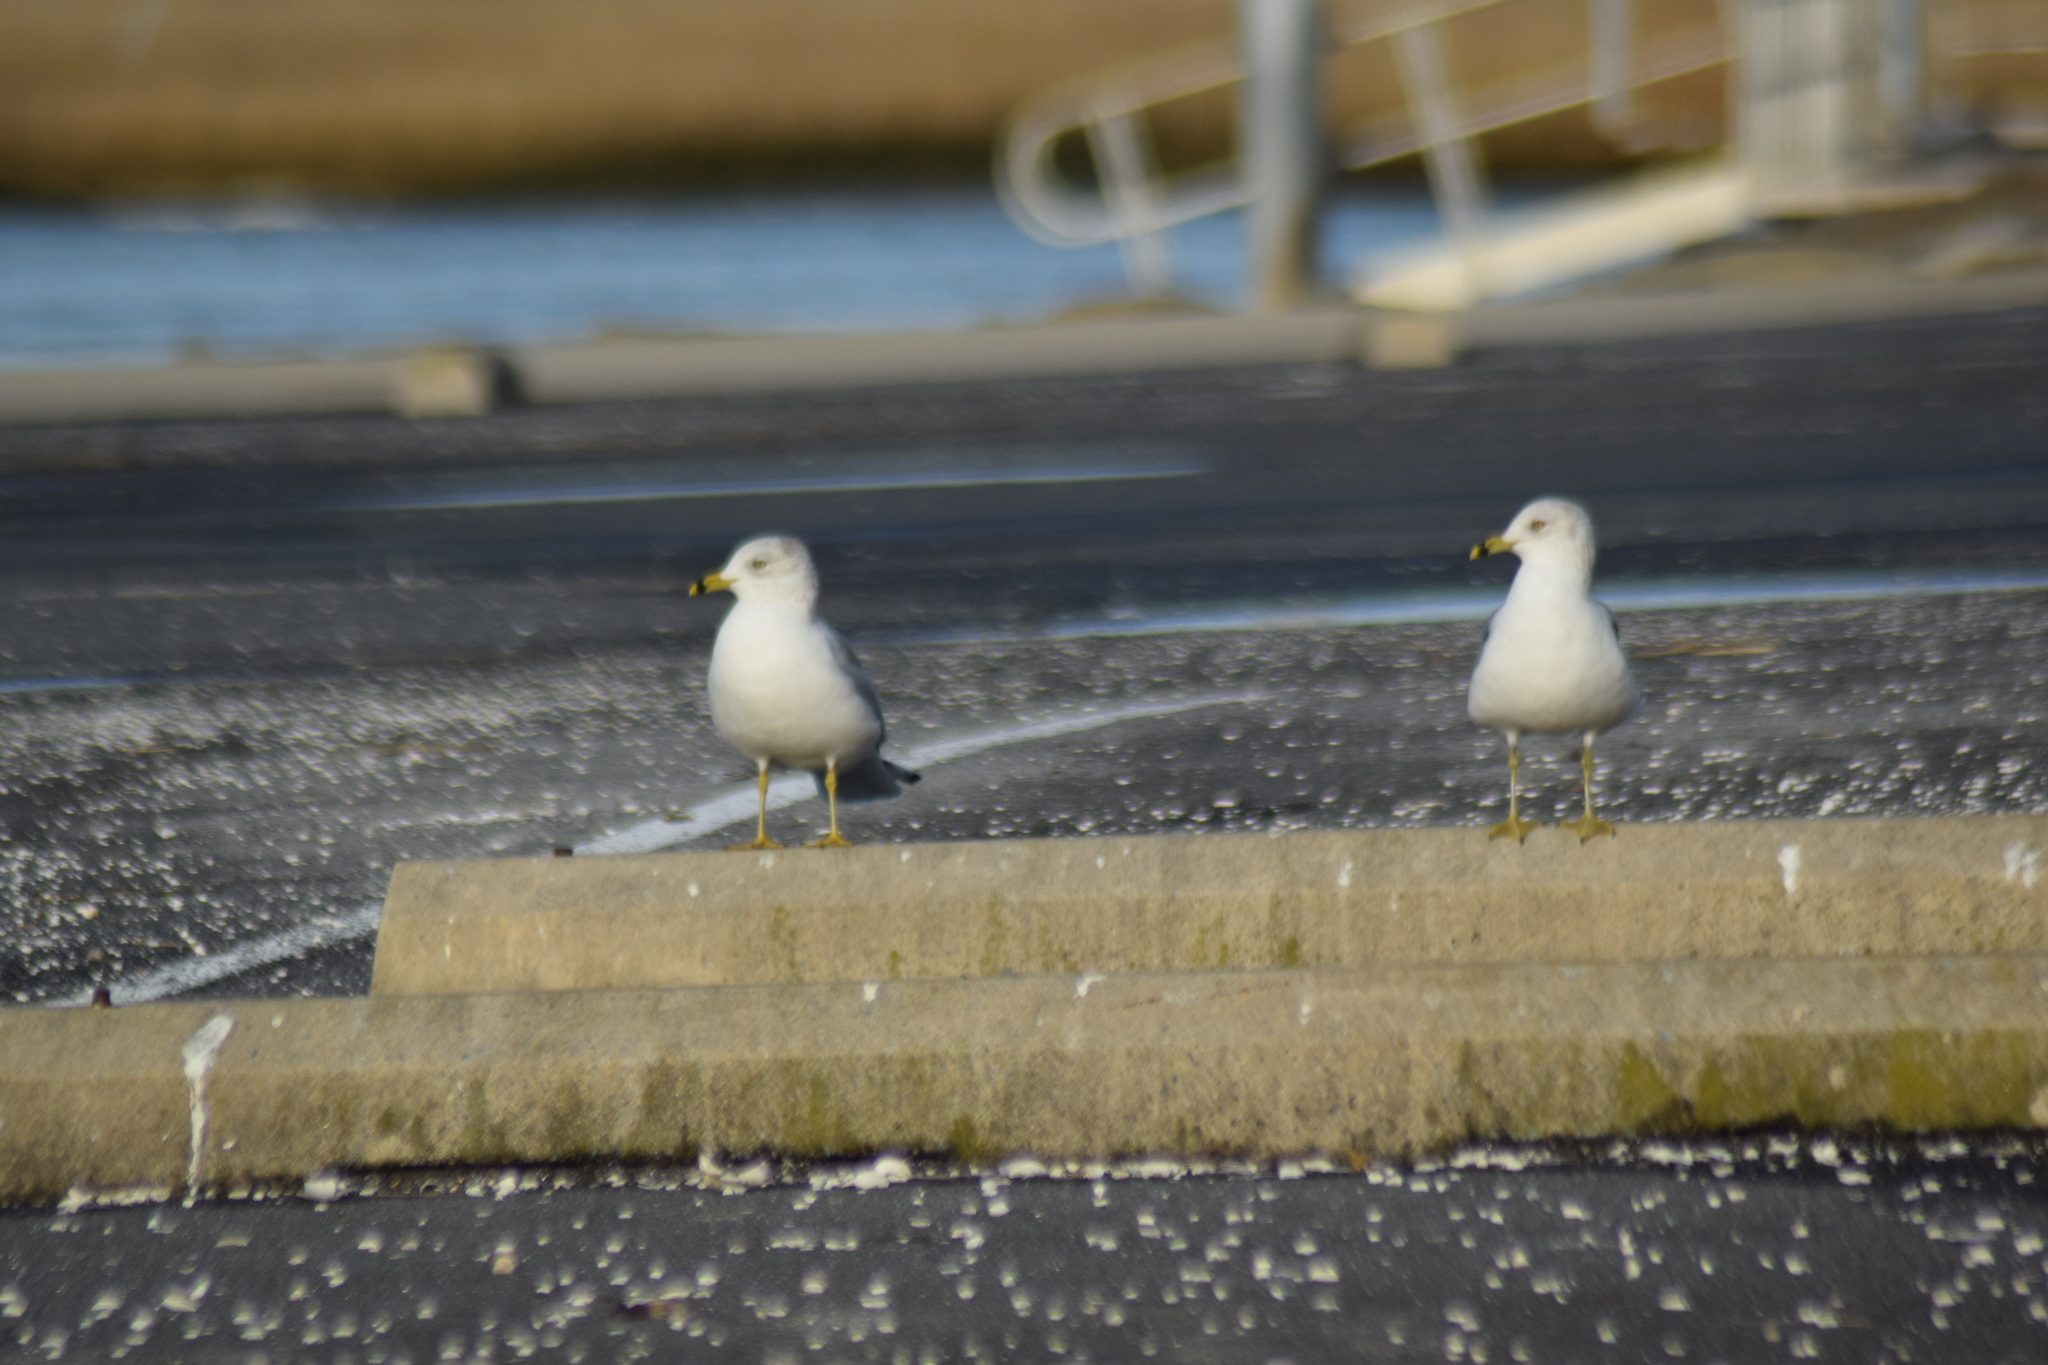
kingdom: Animalia
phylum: Chordata
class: Aves
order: Charadriiformes
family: Laridae
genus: Larus
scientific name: Larus delawarensis
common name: Ring-billed gull
